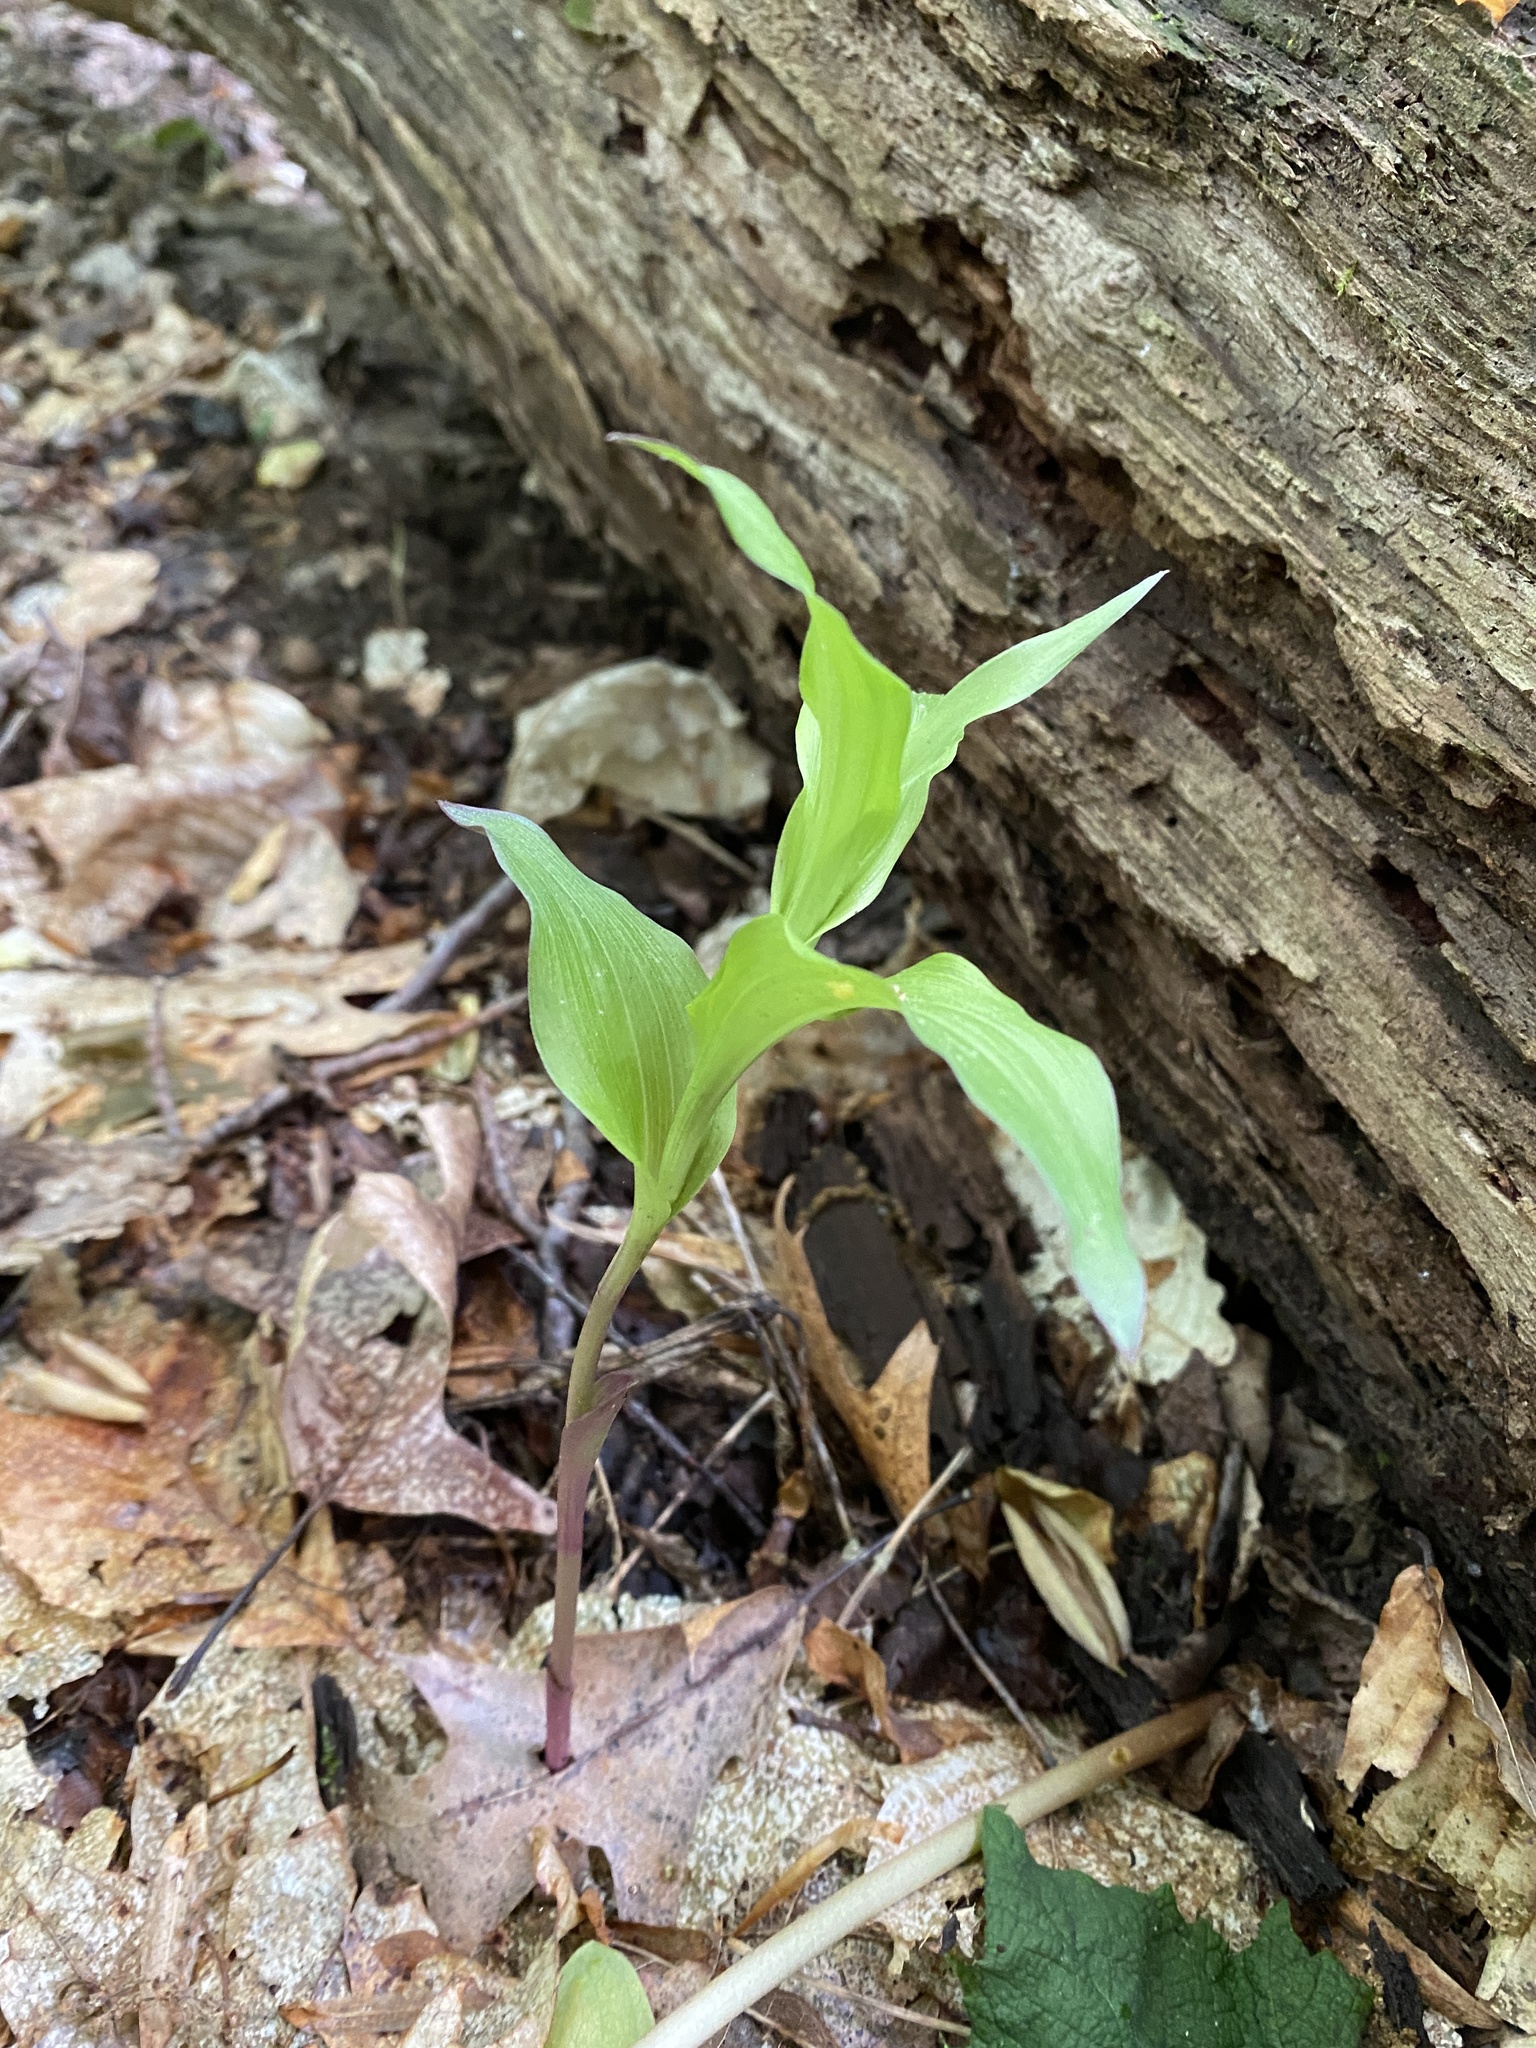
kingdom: Plantae
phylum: Tracheophyta
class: Liliopsida
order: Asparagales
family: Orchidaceae
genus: Epipactis
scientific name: Epipactis helleborine
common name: Broad-leaved helleborine
